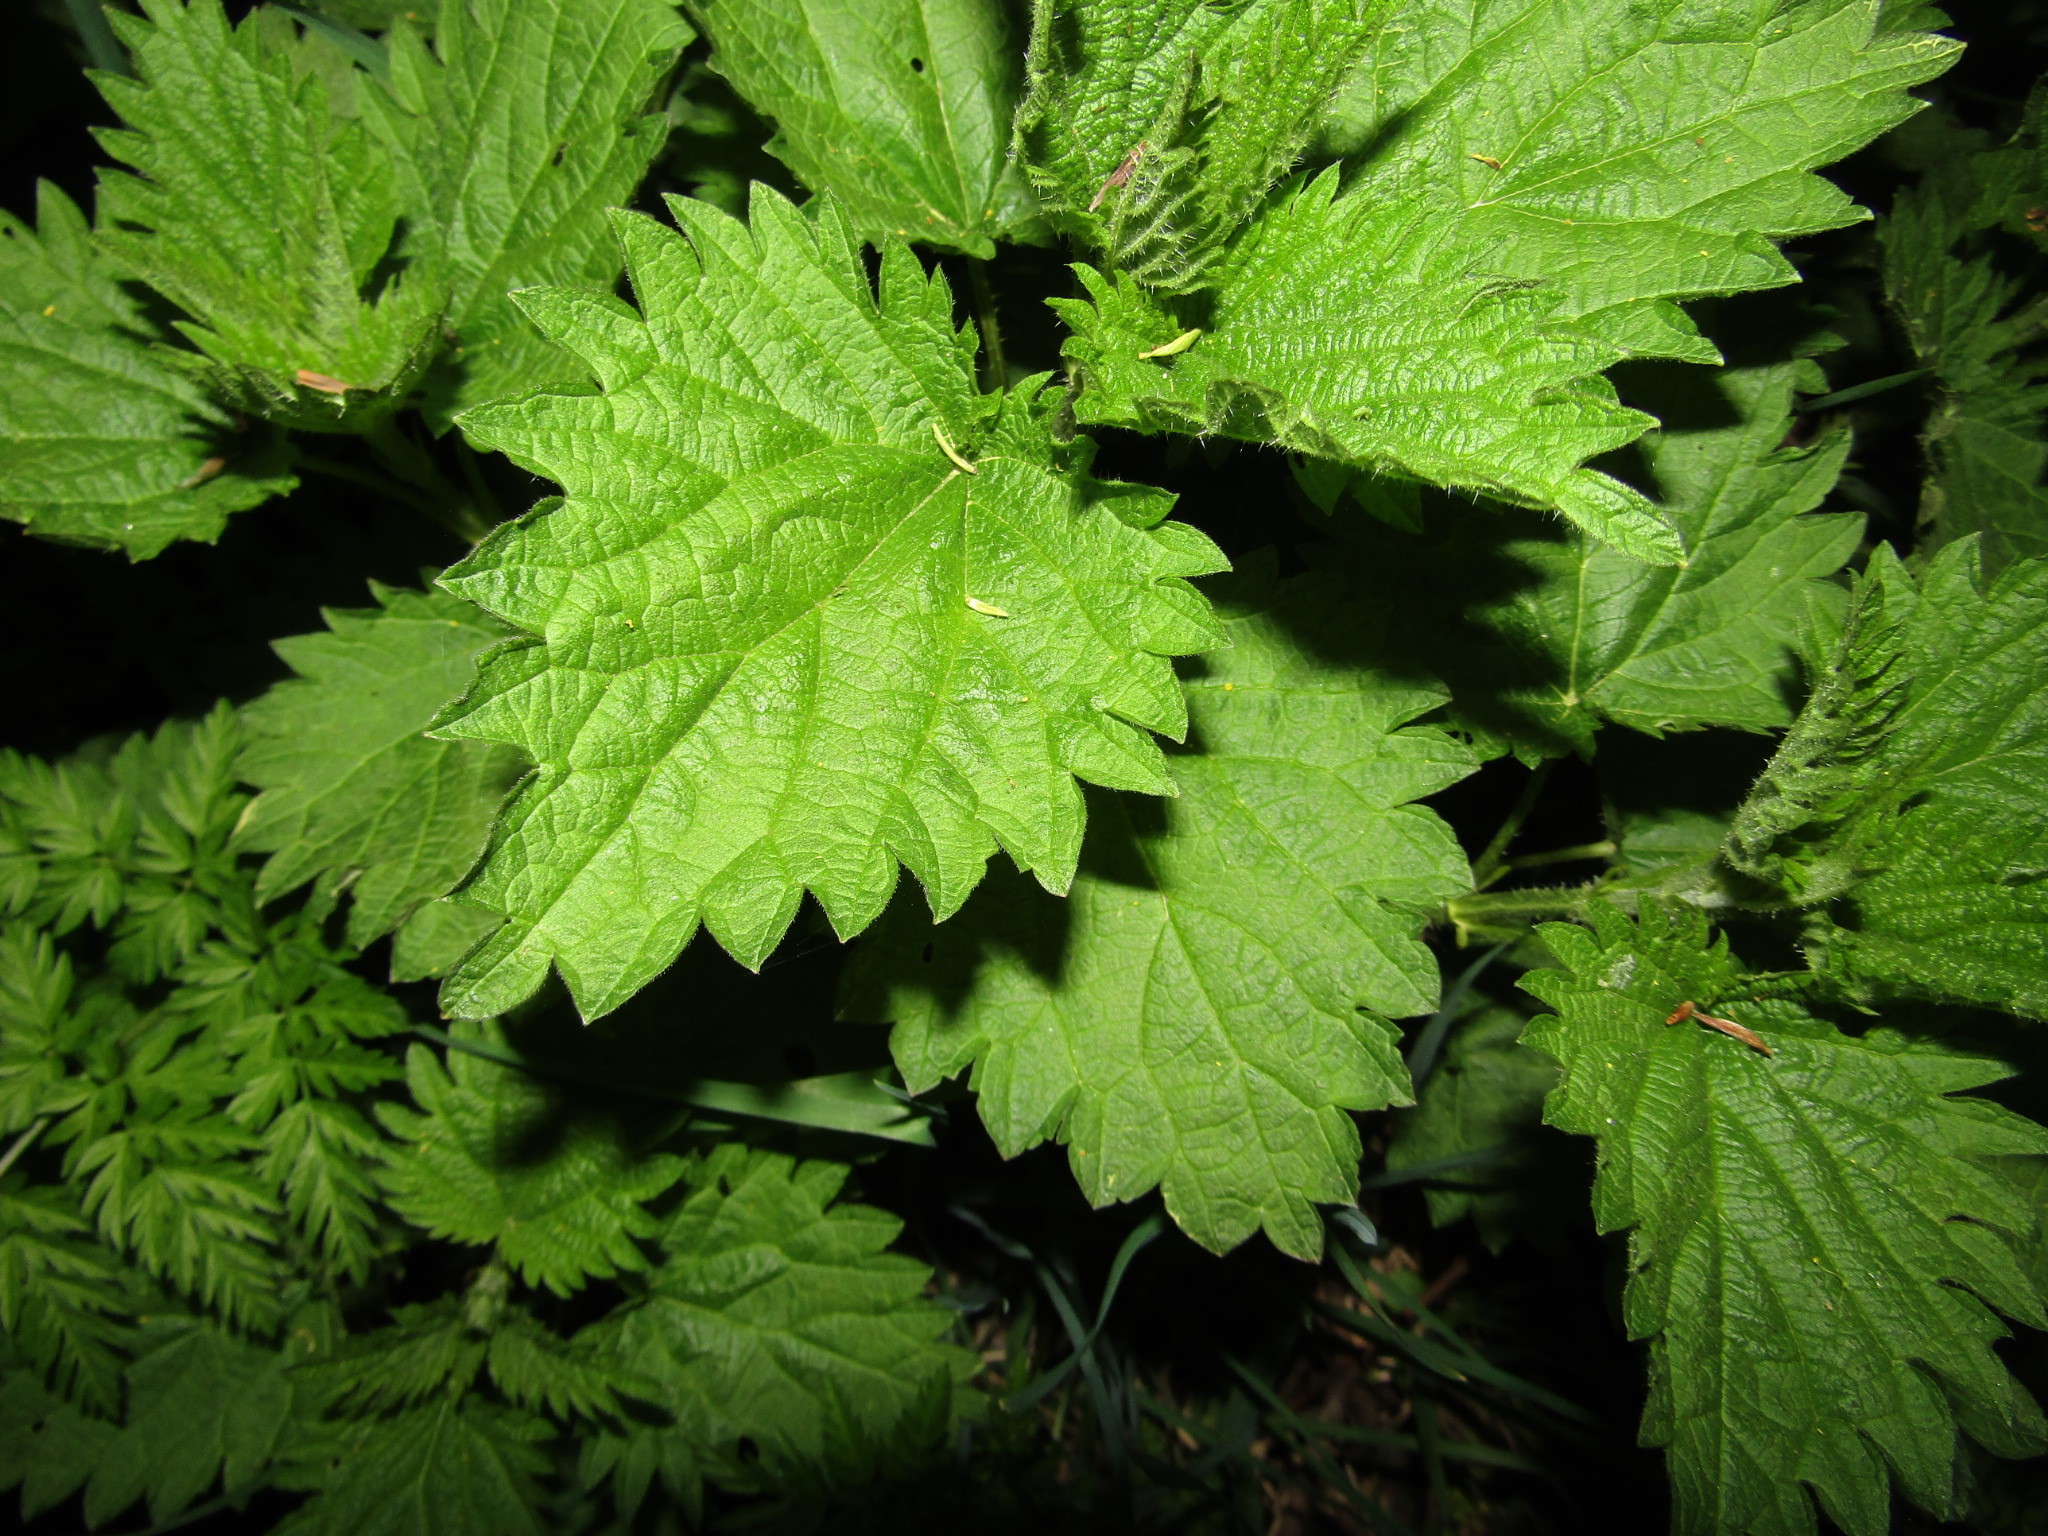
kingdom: Plantae
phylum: Tracheophyta
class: Magnoliopsida
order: Rosales
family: Urticaceae
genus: Urtica
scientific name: Urtica dioica
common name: Common nettle
